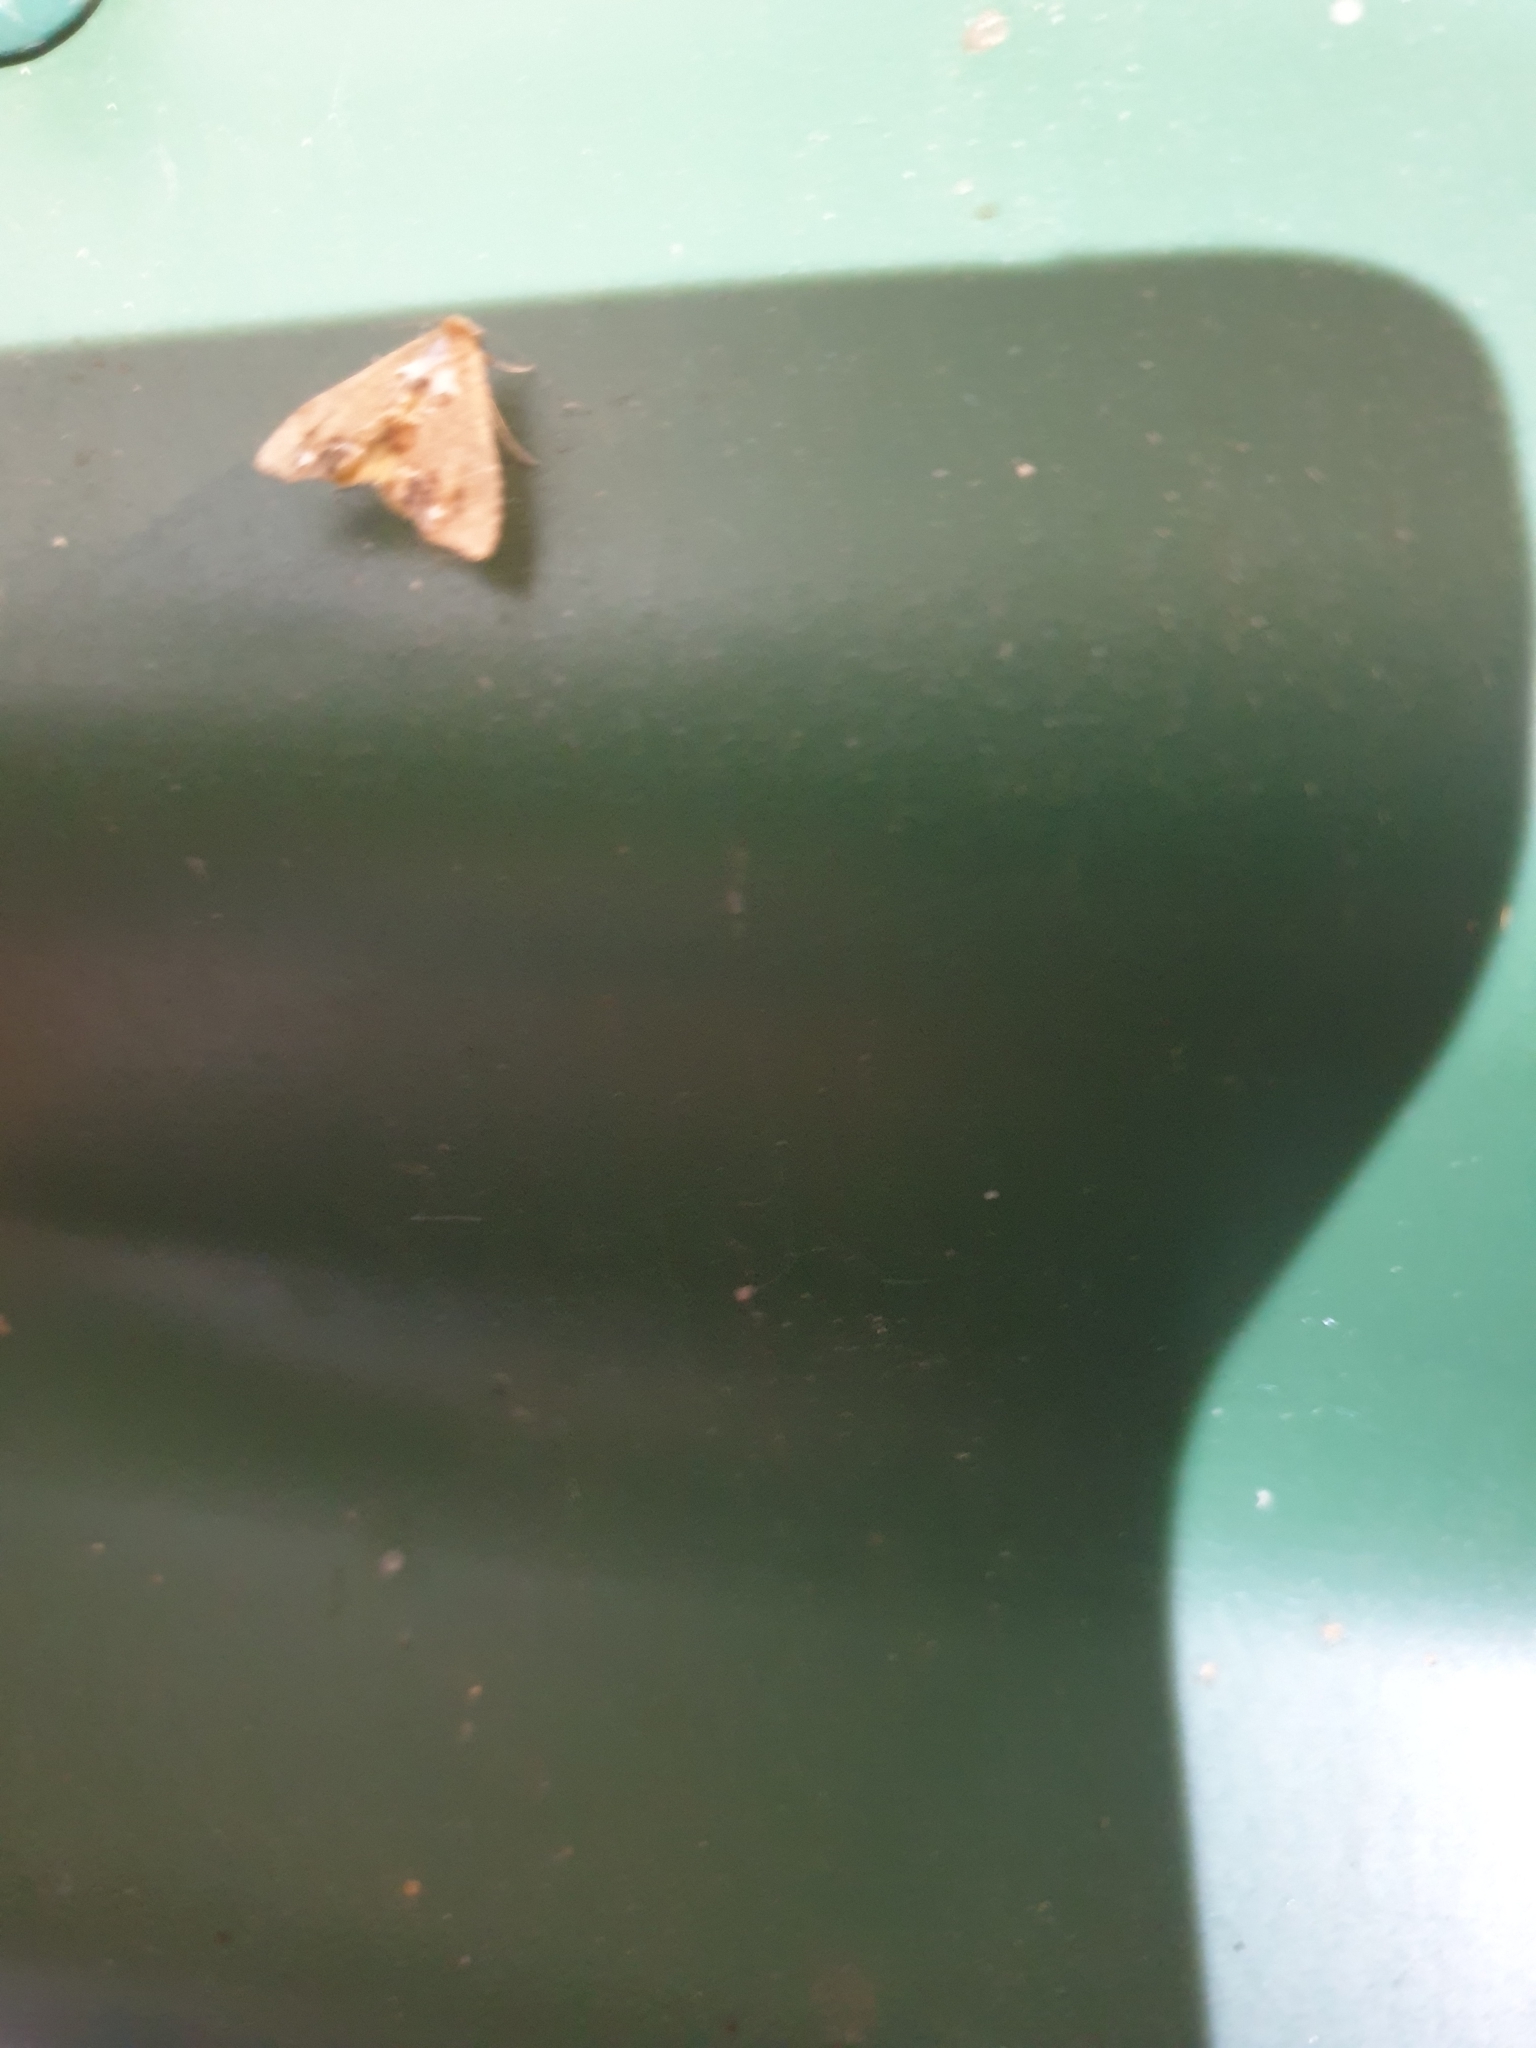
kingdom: Animalia
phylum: Arthropoda
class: Insecta
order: Lepidoptera
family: Erebidae
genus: Arrade
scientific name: Arrade leucocosmalis
